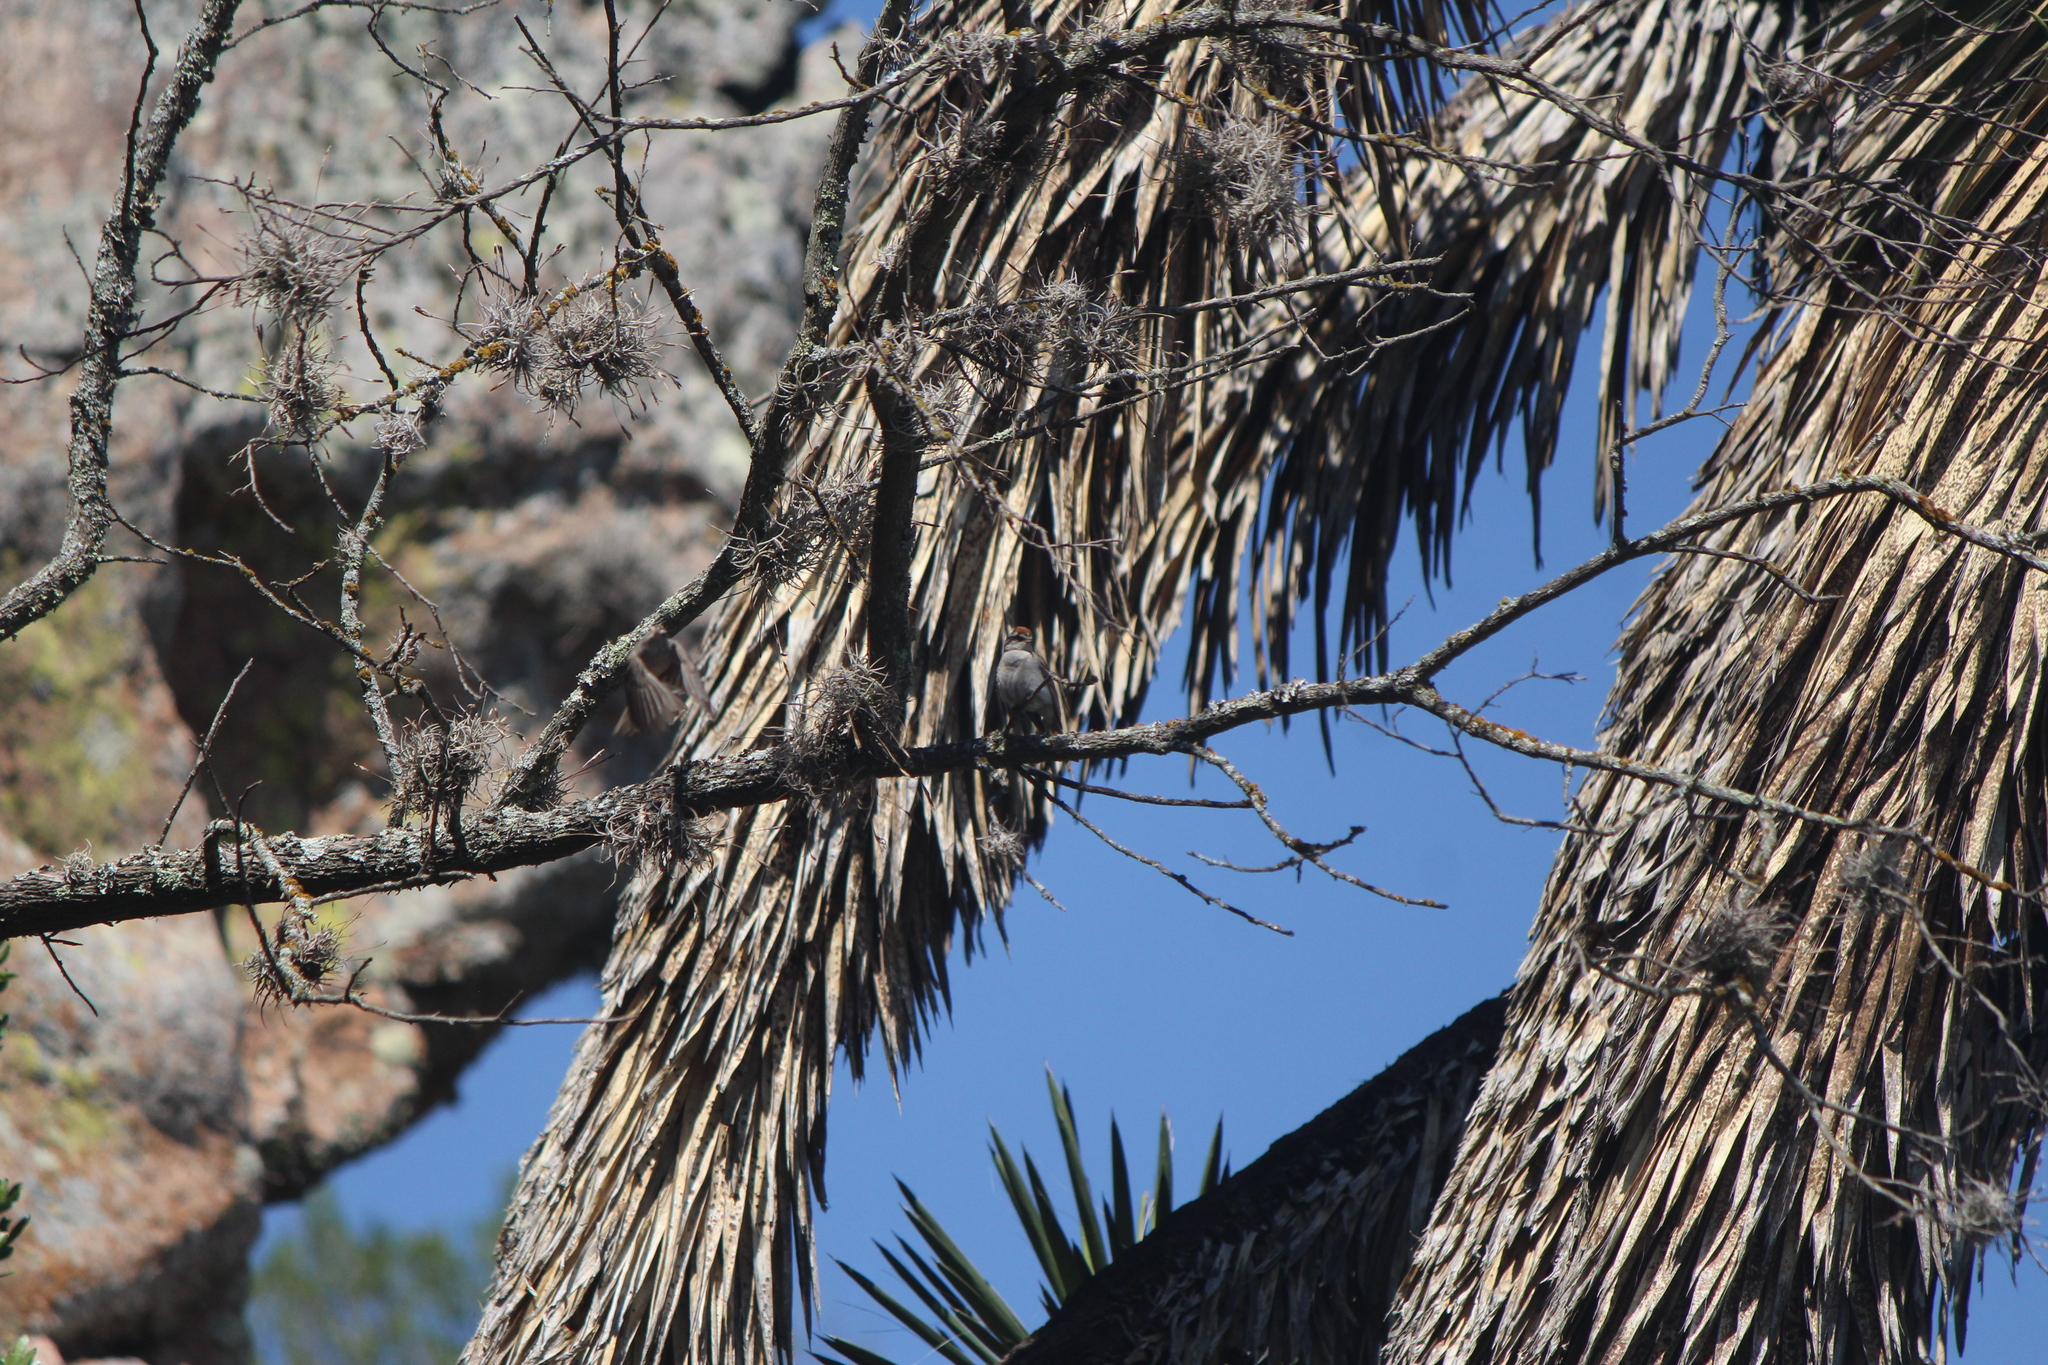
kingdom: Animalia
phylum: Chordata
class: Aves
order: Passeriformes
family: Passerellidae
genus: Spizella
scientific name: Spizella passerina
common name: Chipping sparrow
